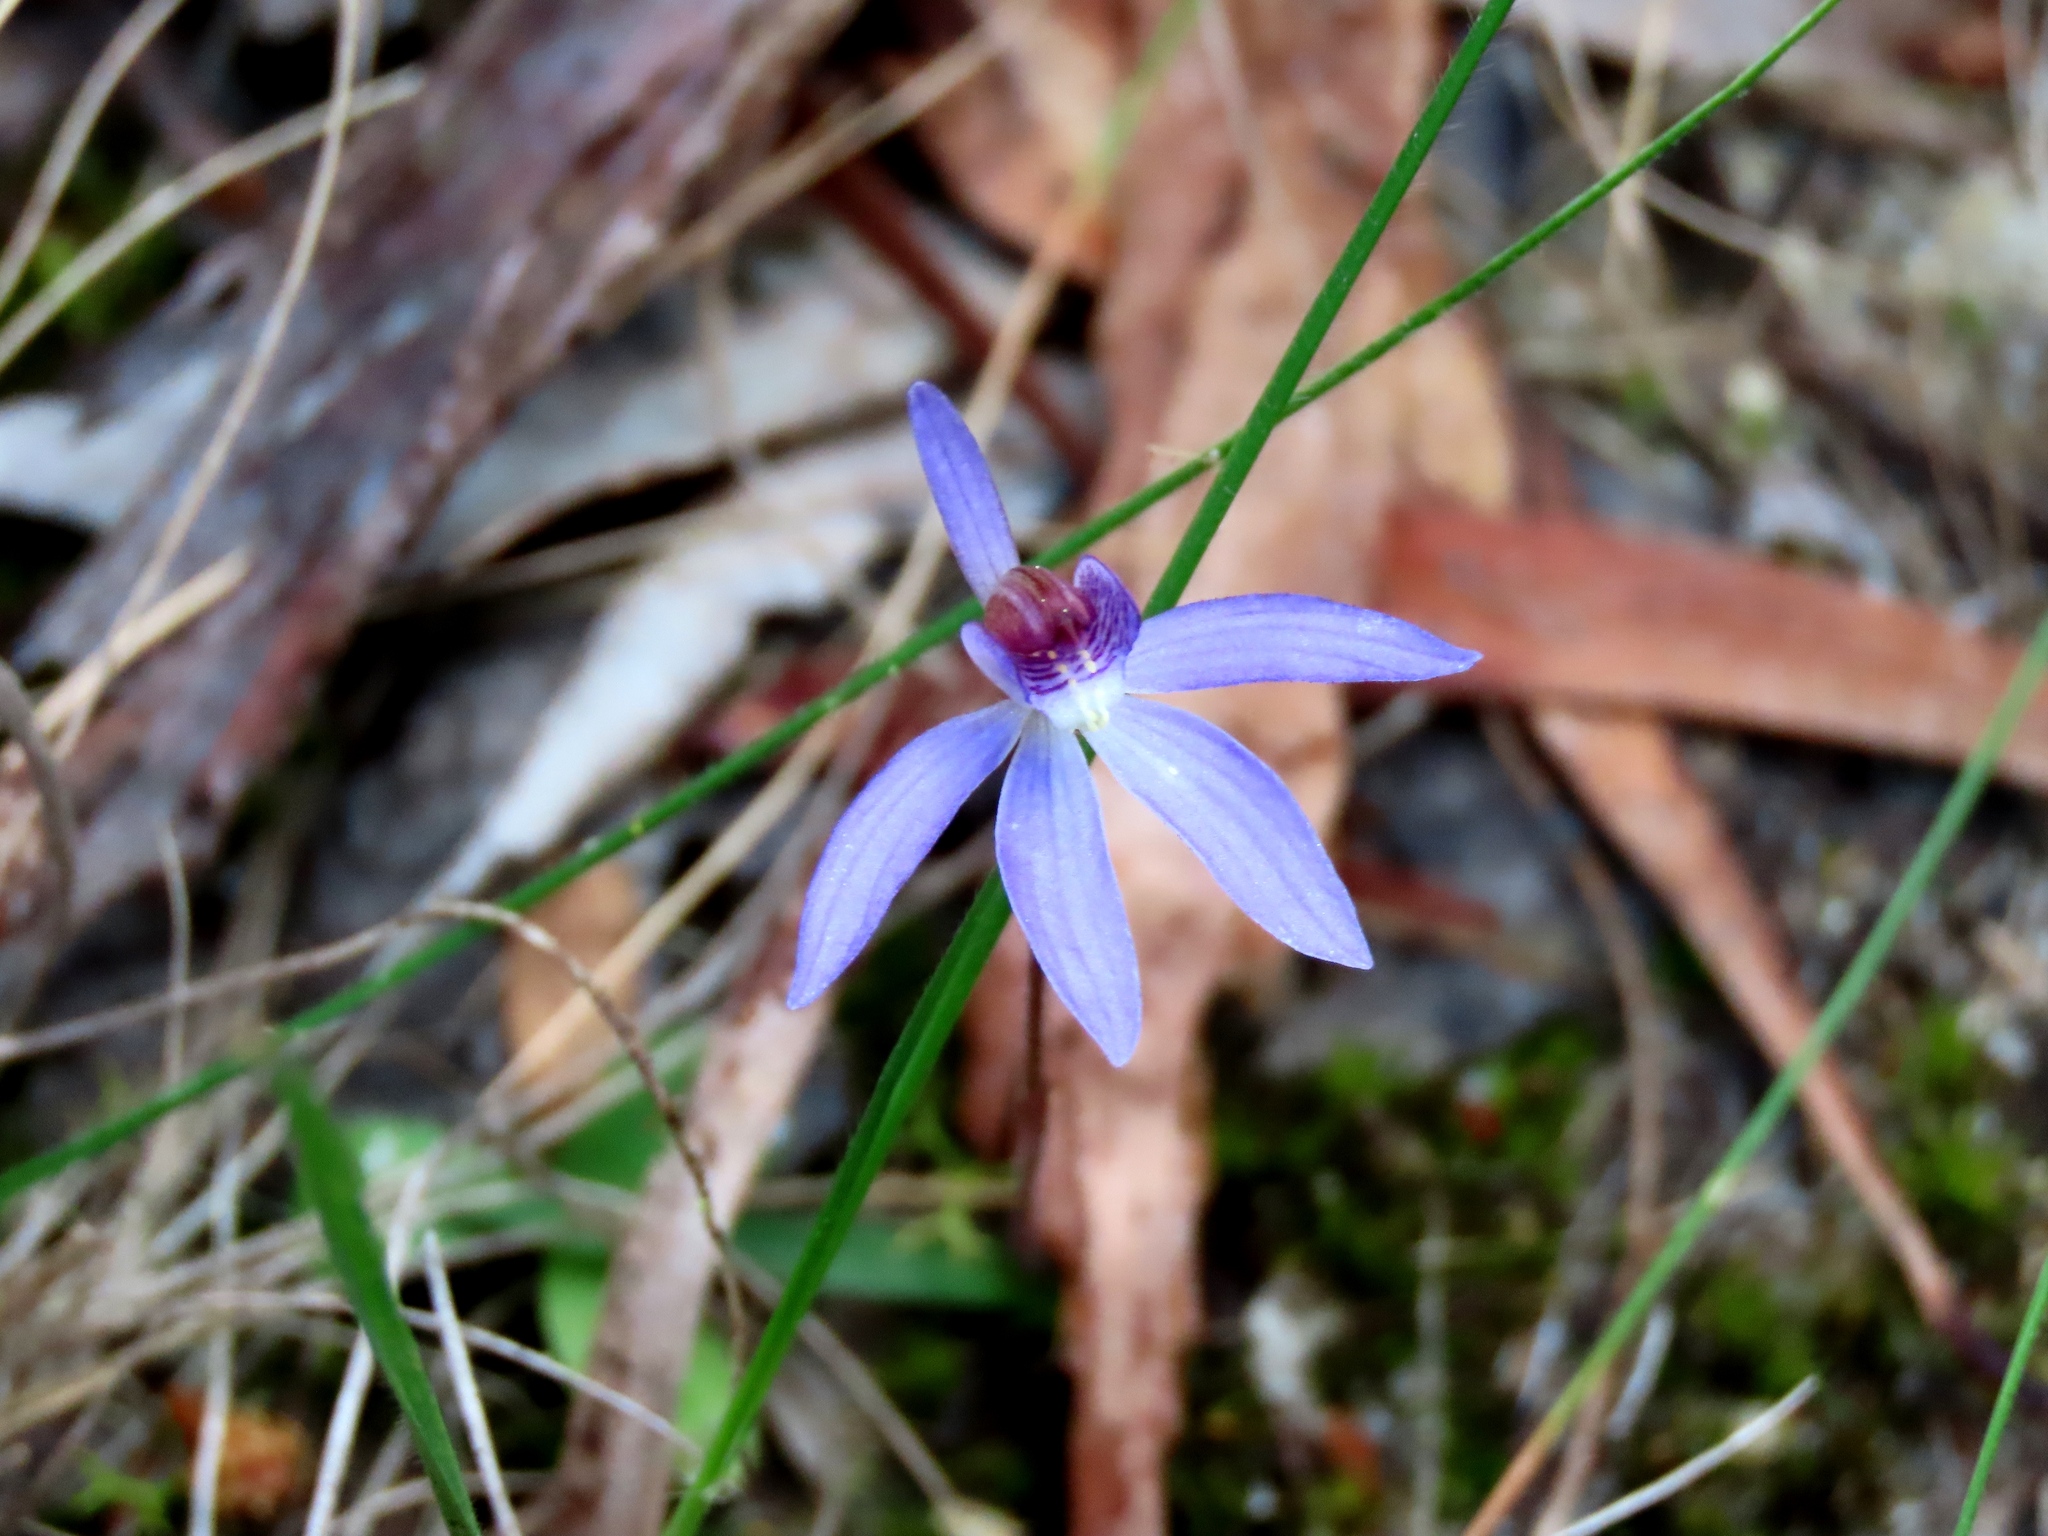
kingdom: Plantae
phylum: Tracheophyta
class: Liliopsida
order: Asparagales
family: Orchidaceae
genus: Caladenia
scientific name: Caladenia caerulea
